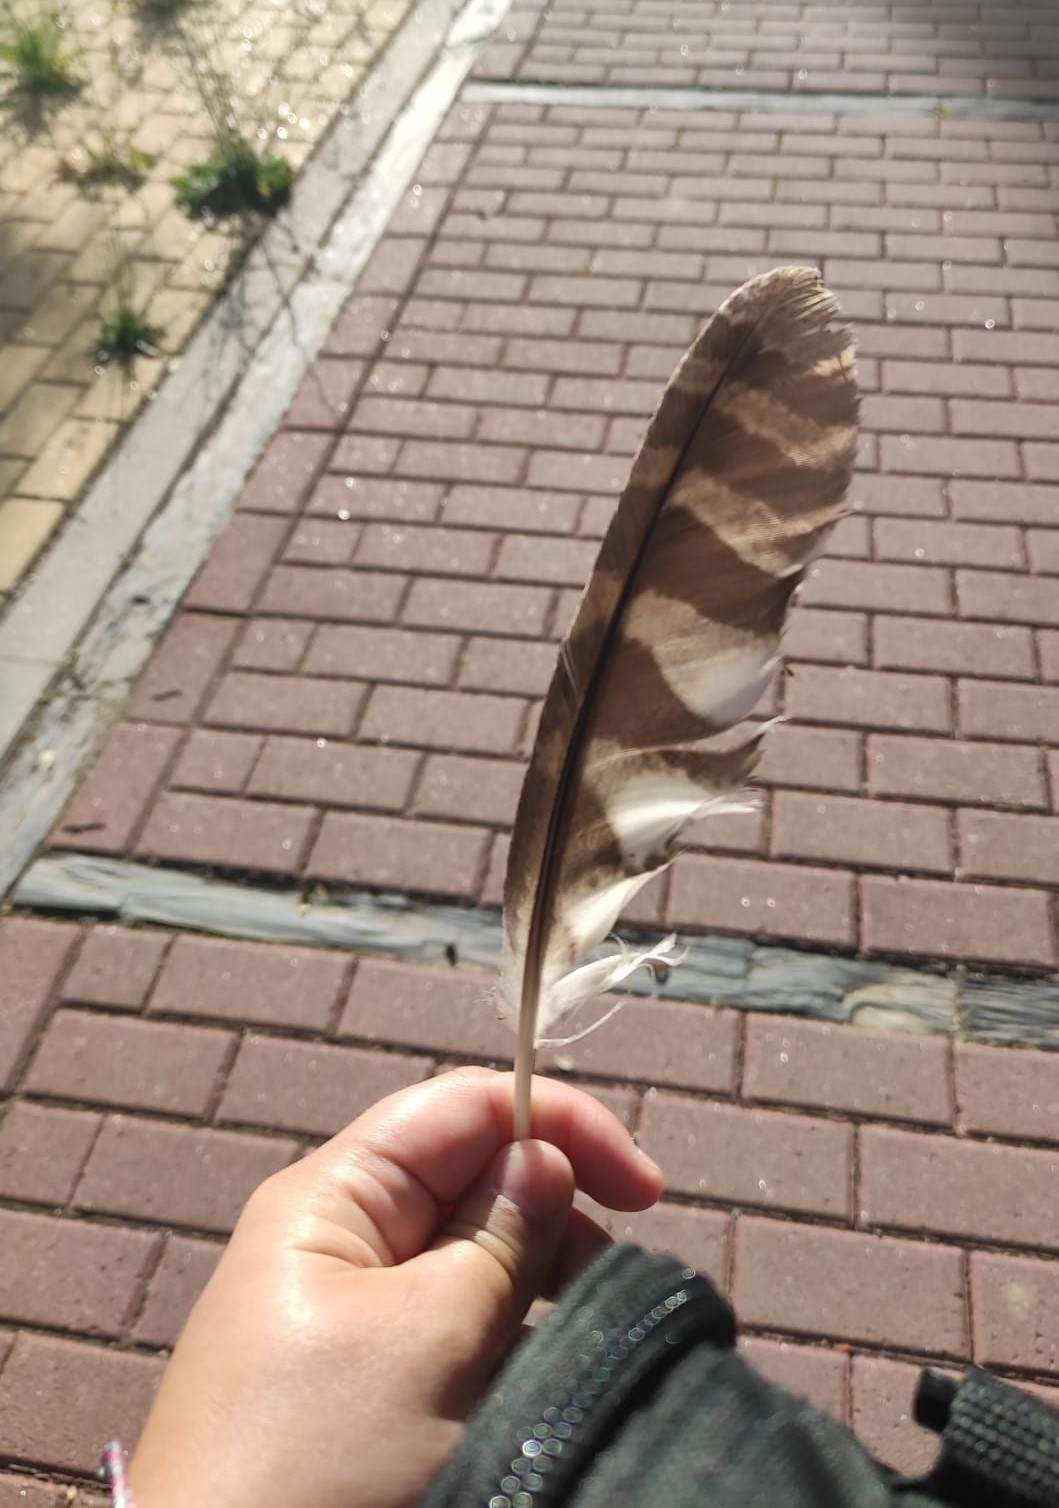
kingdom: Animalia
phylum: Chordata
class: Aves
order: Strigiformes
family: Strigidae
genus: Strix
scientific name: Strix aluco
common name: Tawny owl
